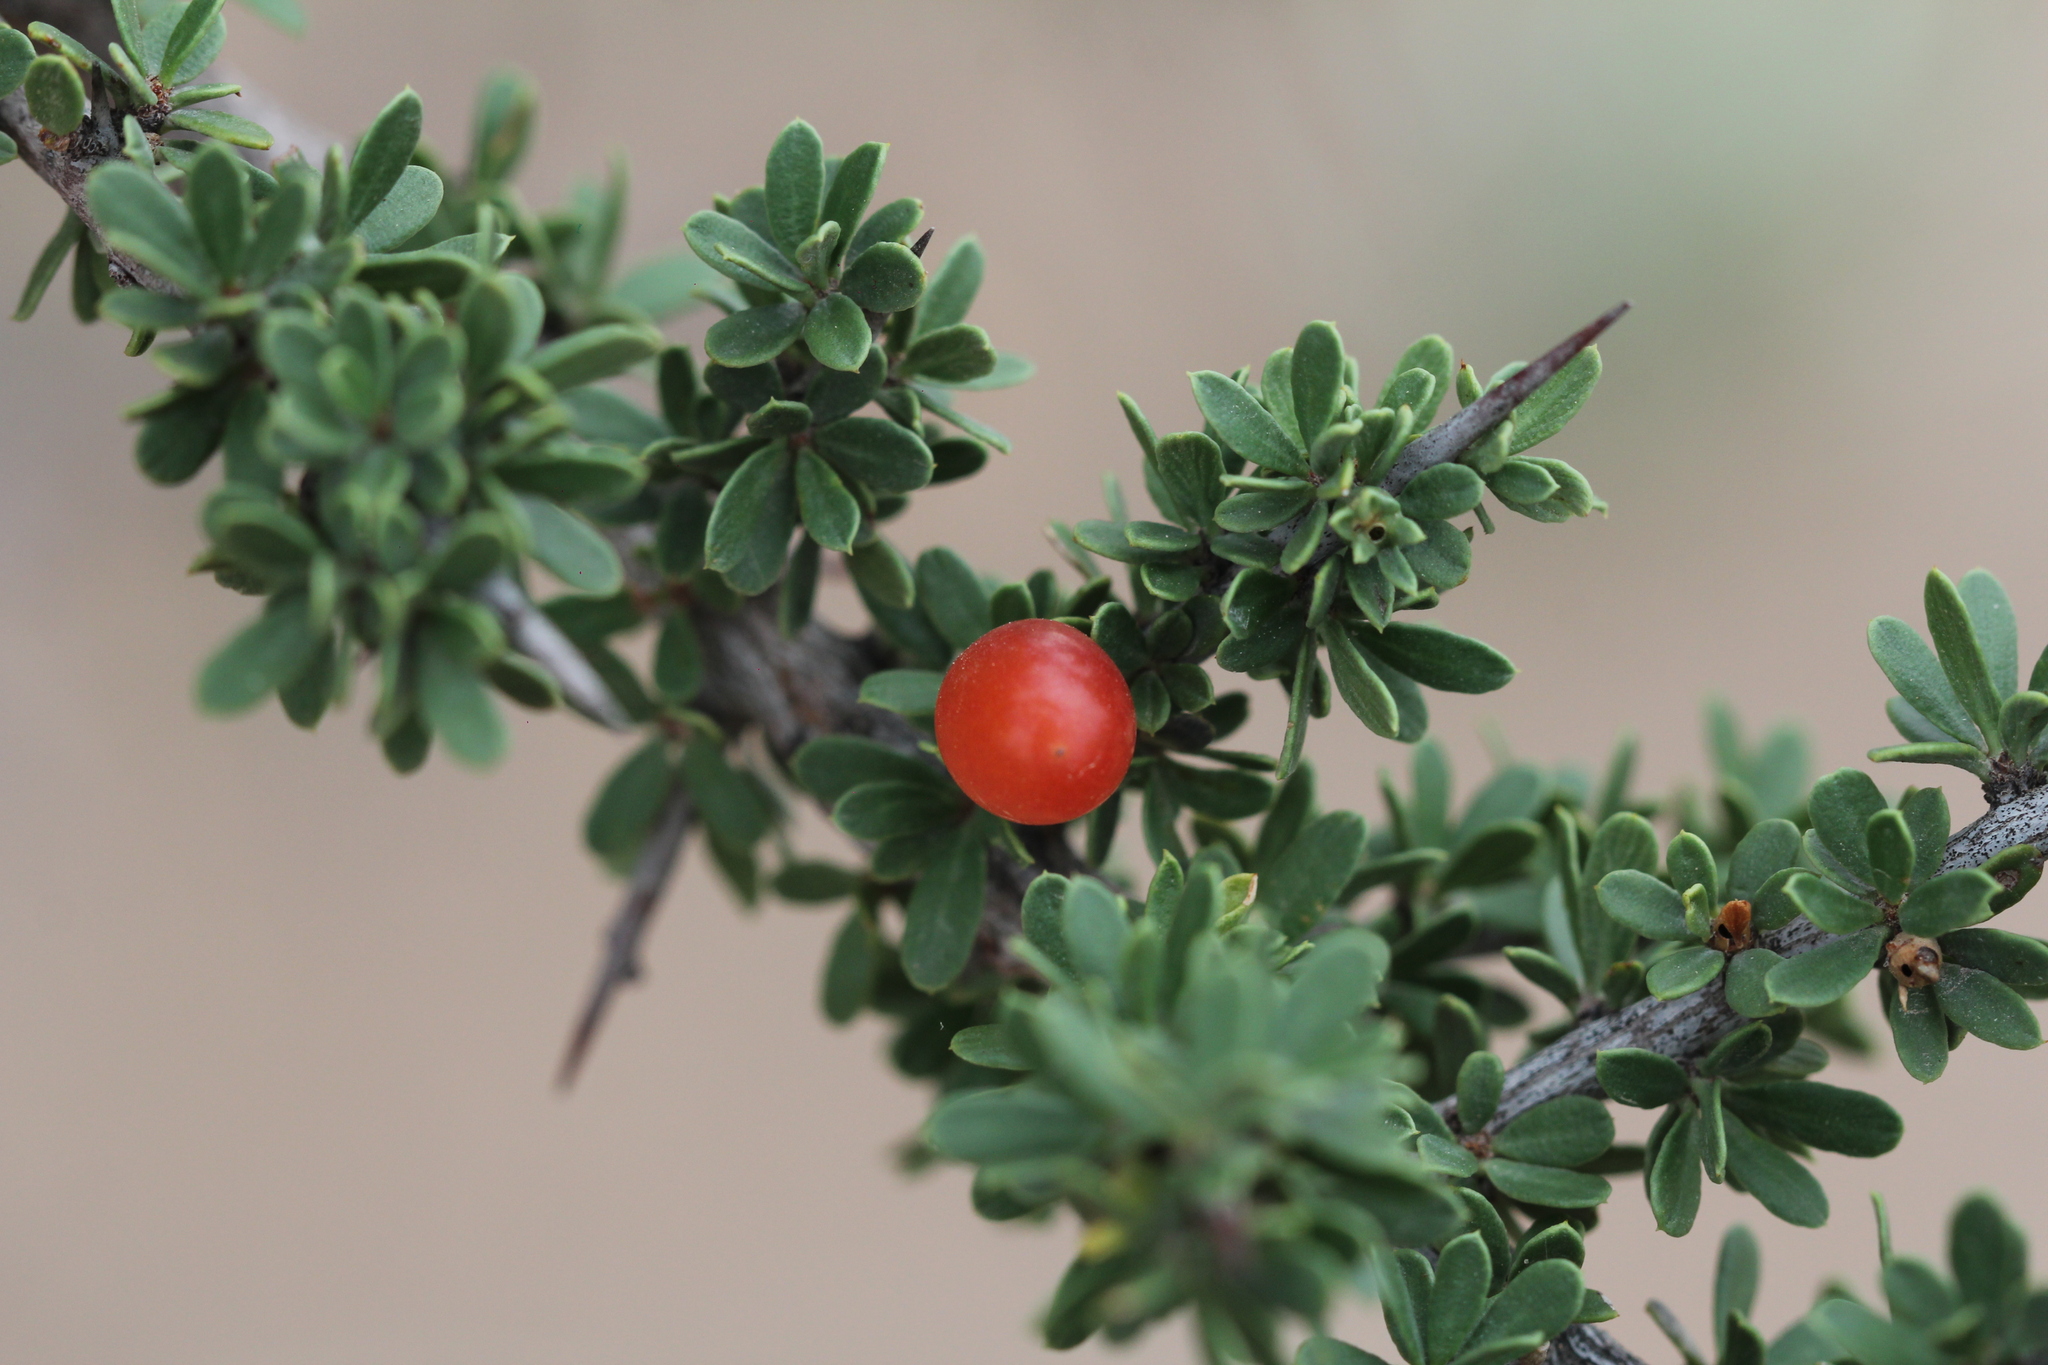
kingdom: Plantae
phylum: Tracheophyta
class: Magnoliopsida
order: Rosales
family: Rhamnaceae
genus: Condalia
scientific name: Condalia microphylla
